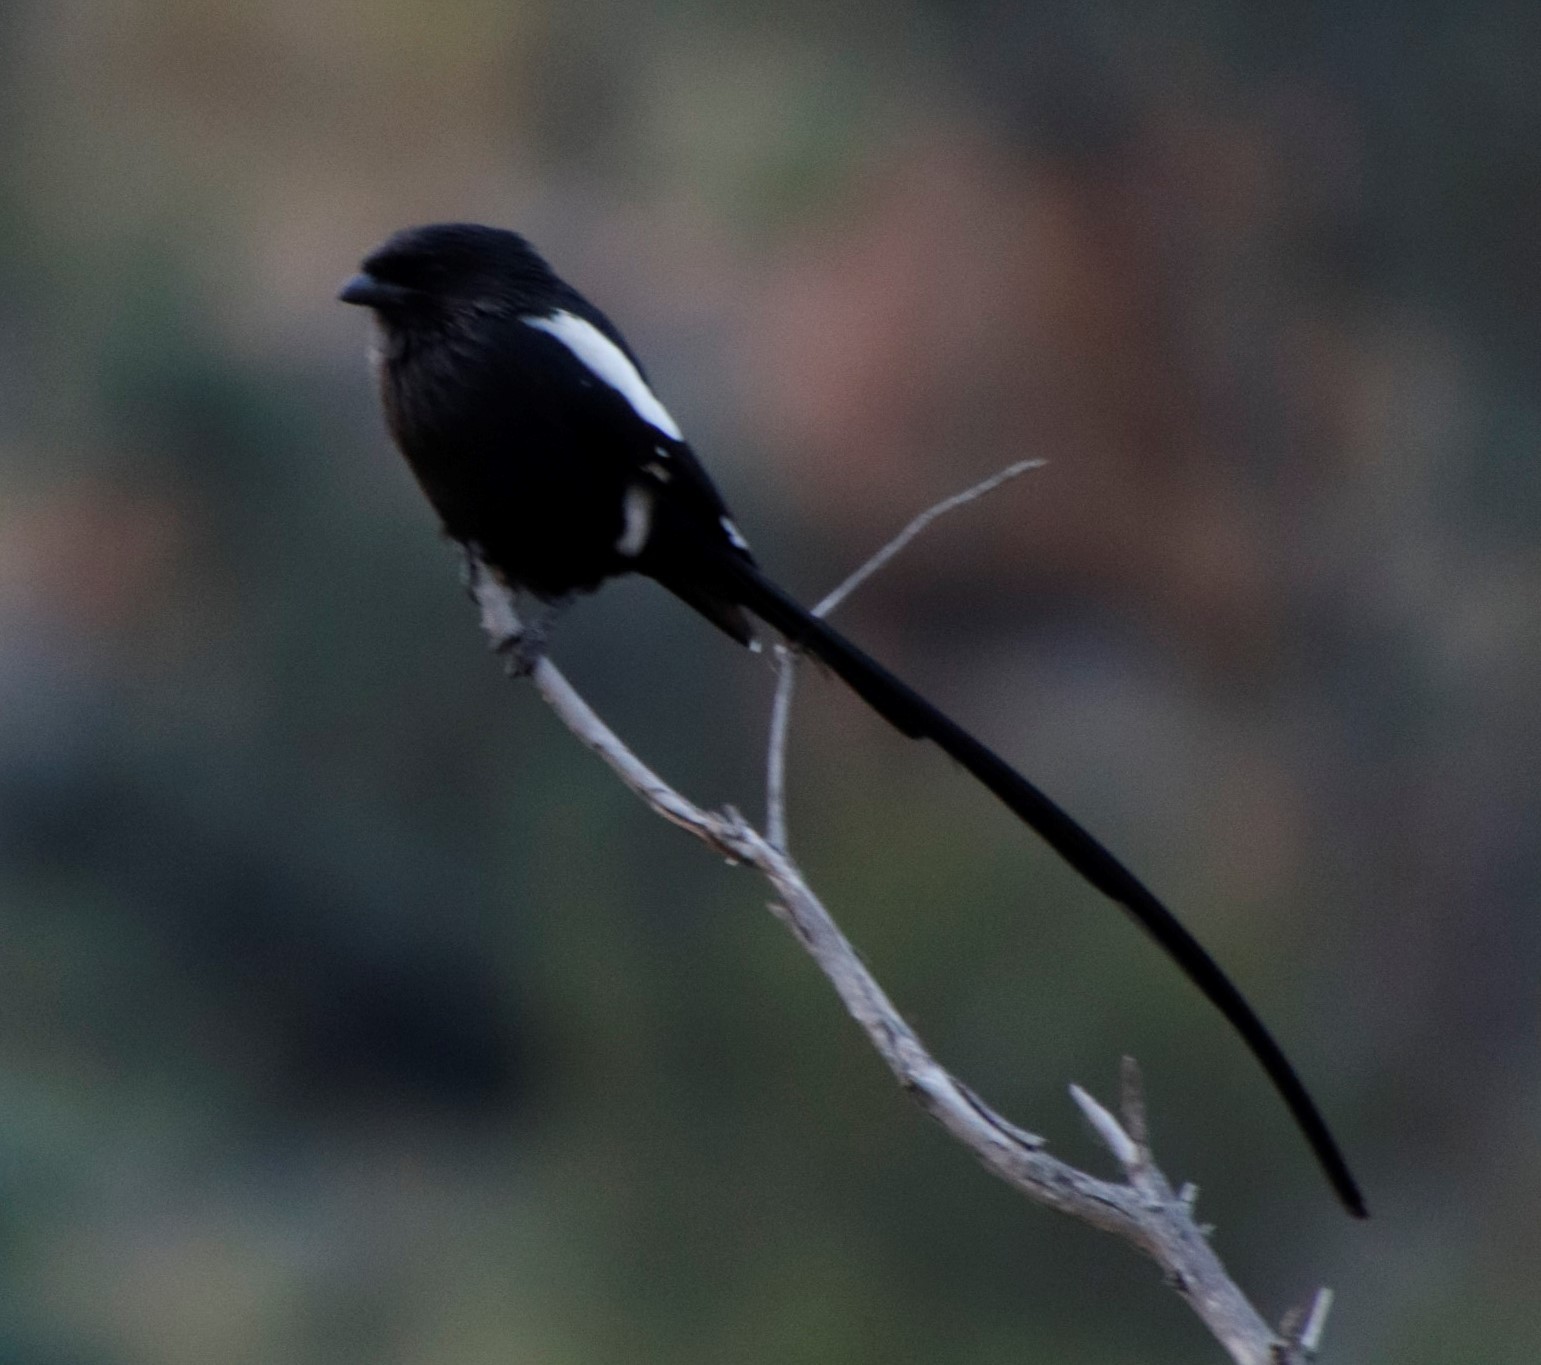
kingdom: Animalia
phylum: Chordata
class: Aves
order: Passeriformes
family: Laniidae
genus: Urolestes
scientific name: Urolestes melanoleucus
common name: Magpie shrike
